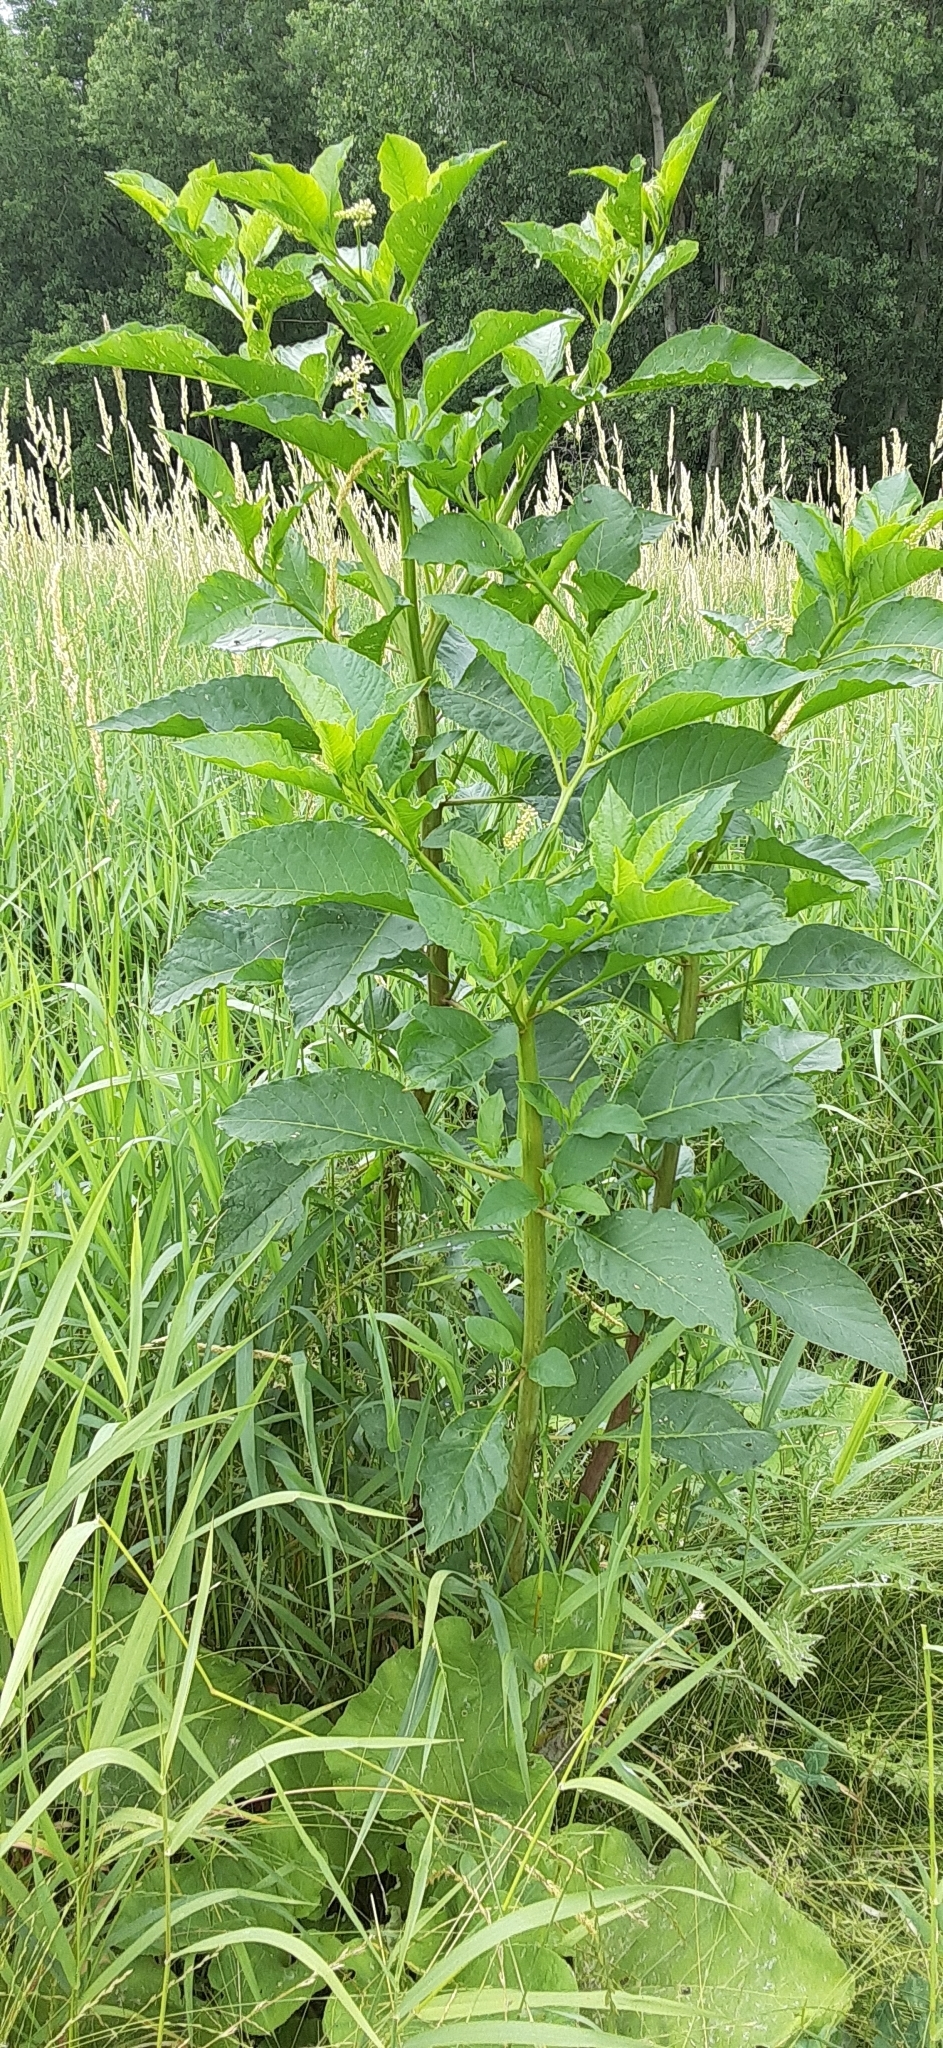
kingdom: Plantae
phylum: Tracheophyta
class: Magnoliopsida
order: Caryophyllales
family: Phytolaccaceae
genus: Phytolacca
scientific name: Phytolacca americana
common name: American pokeweed
